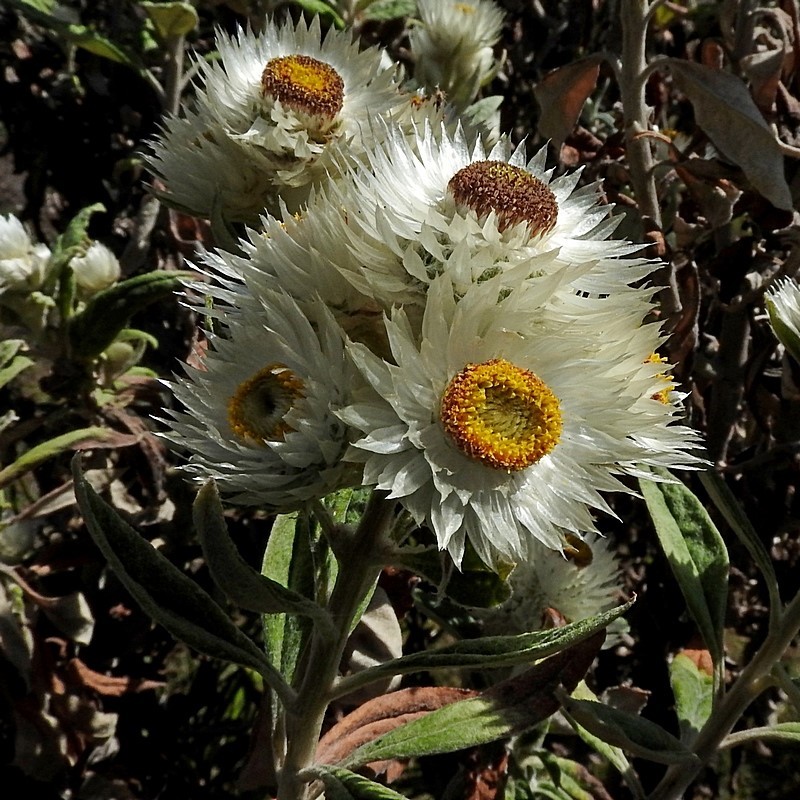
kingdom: Plantae
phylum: Tracheophyta
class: Magnoliopsida
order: Asterales
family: Asteraceae
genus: Leucozoma
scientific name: Leucozoma elatum
